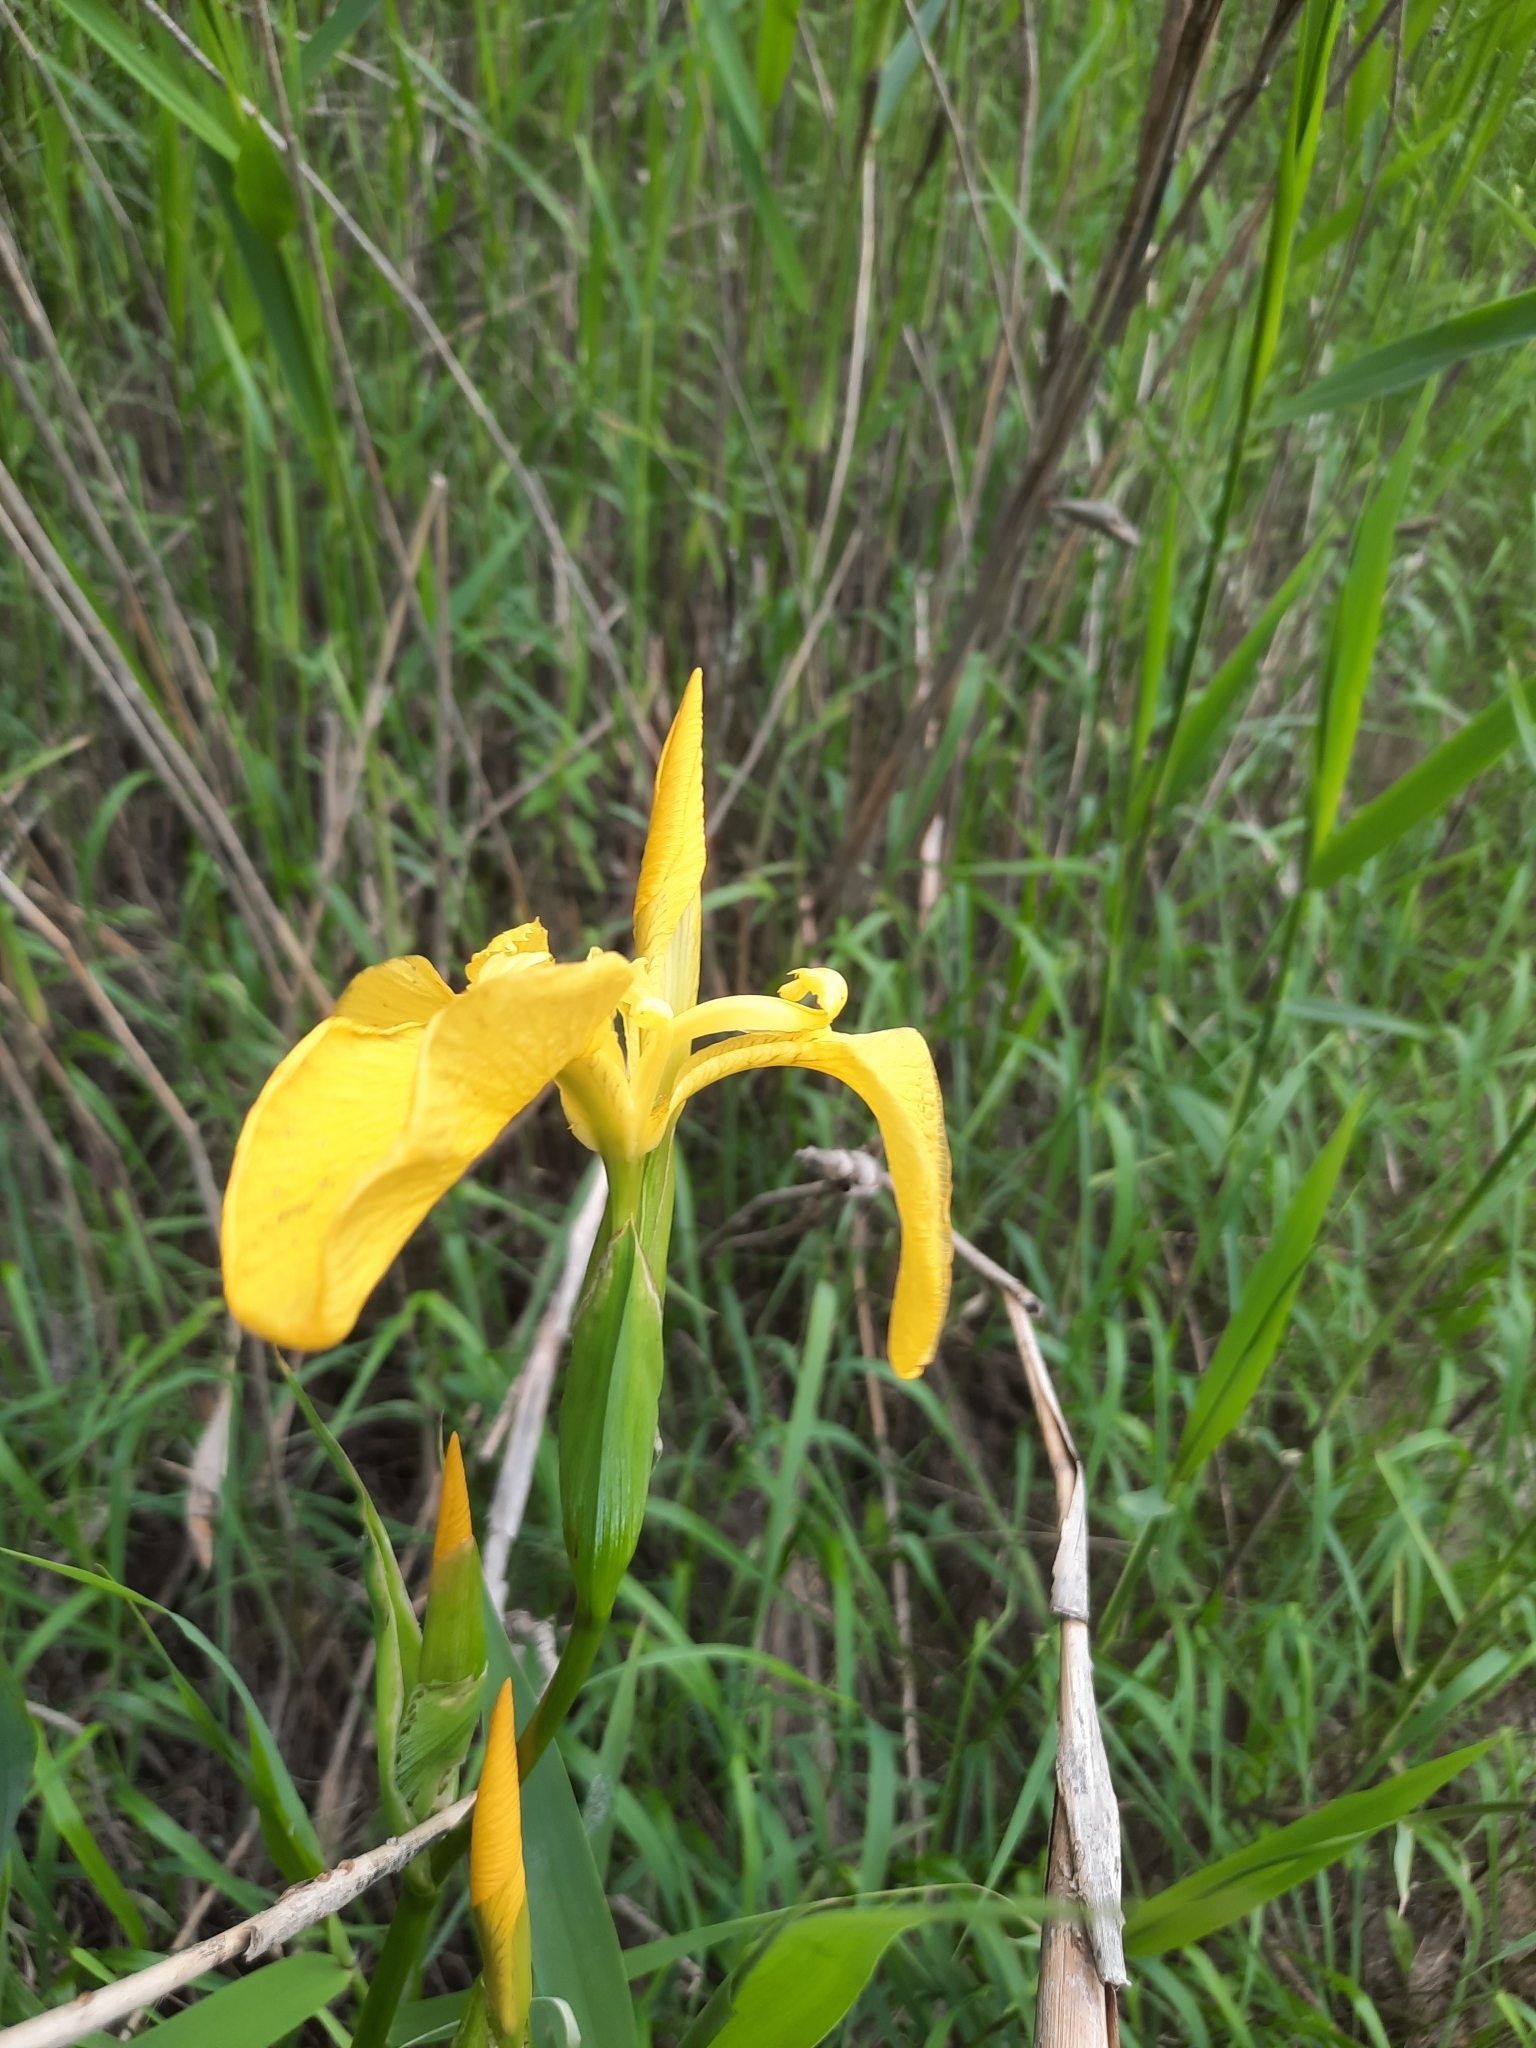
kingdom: Plantae
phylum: Tracheophyta
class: Liliopsida
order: Asparagales
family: Iridaceae
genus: Iris
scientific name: Iris pseudacorus
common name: Yellow flag
